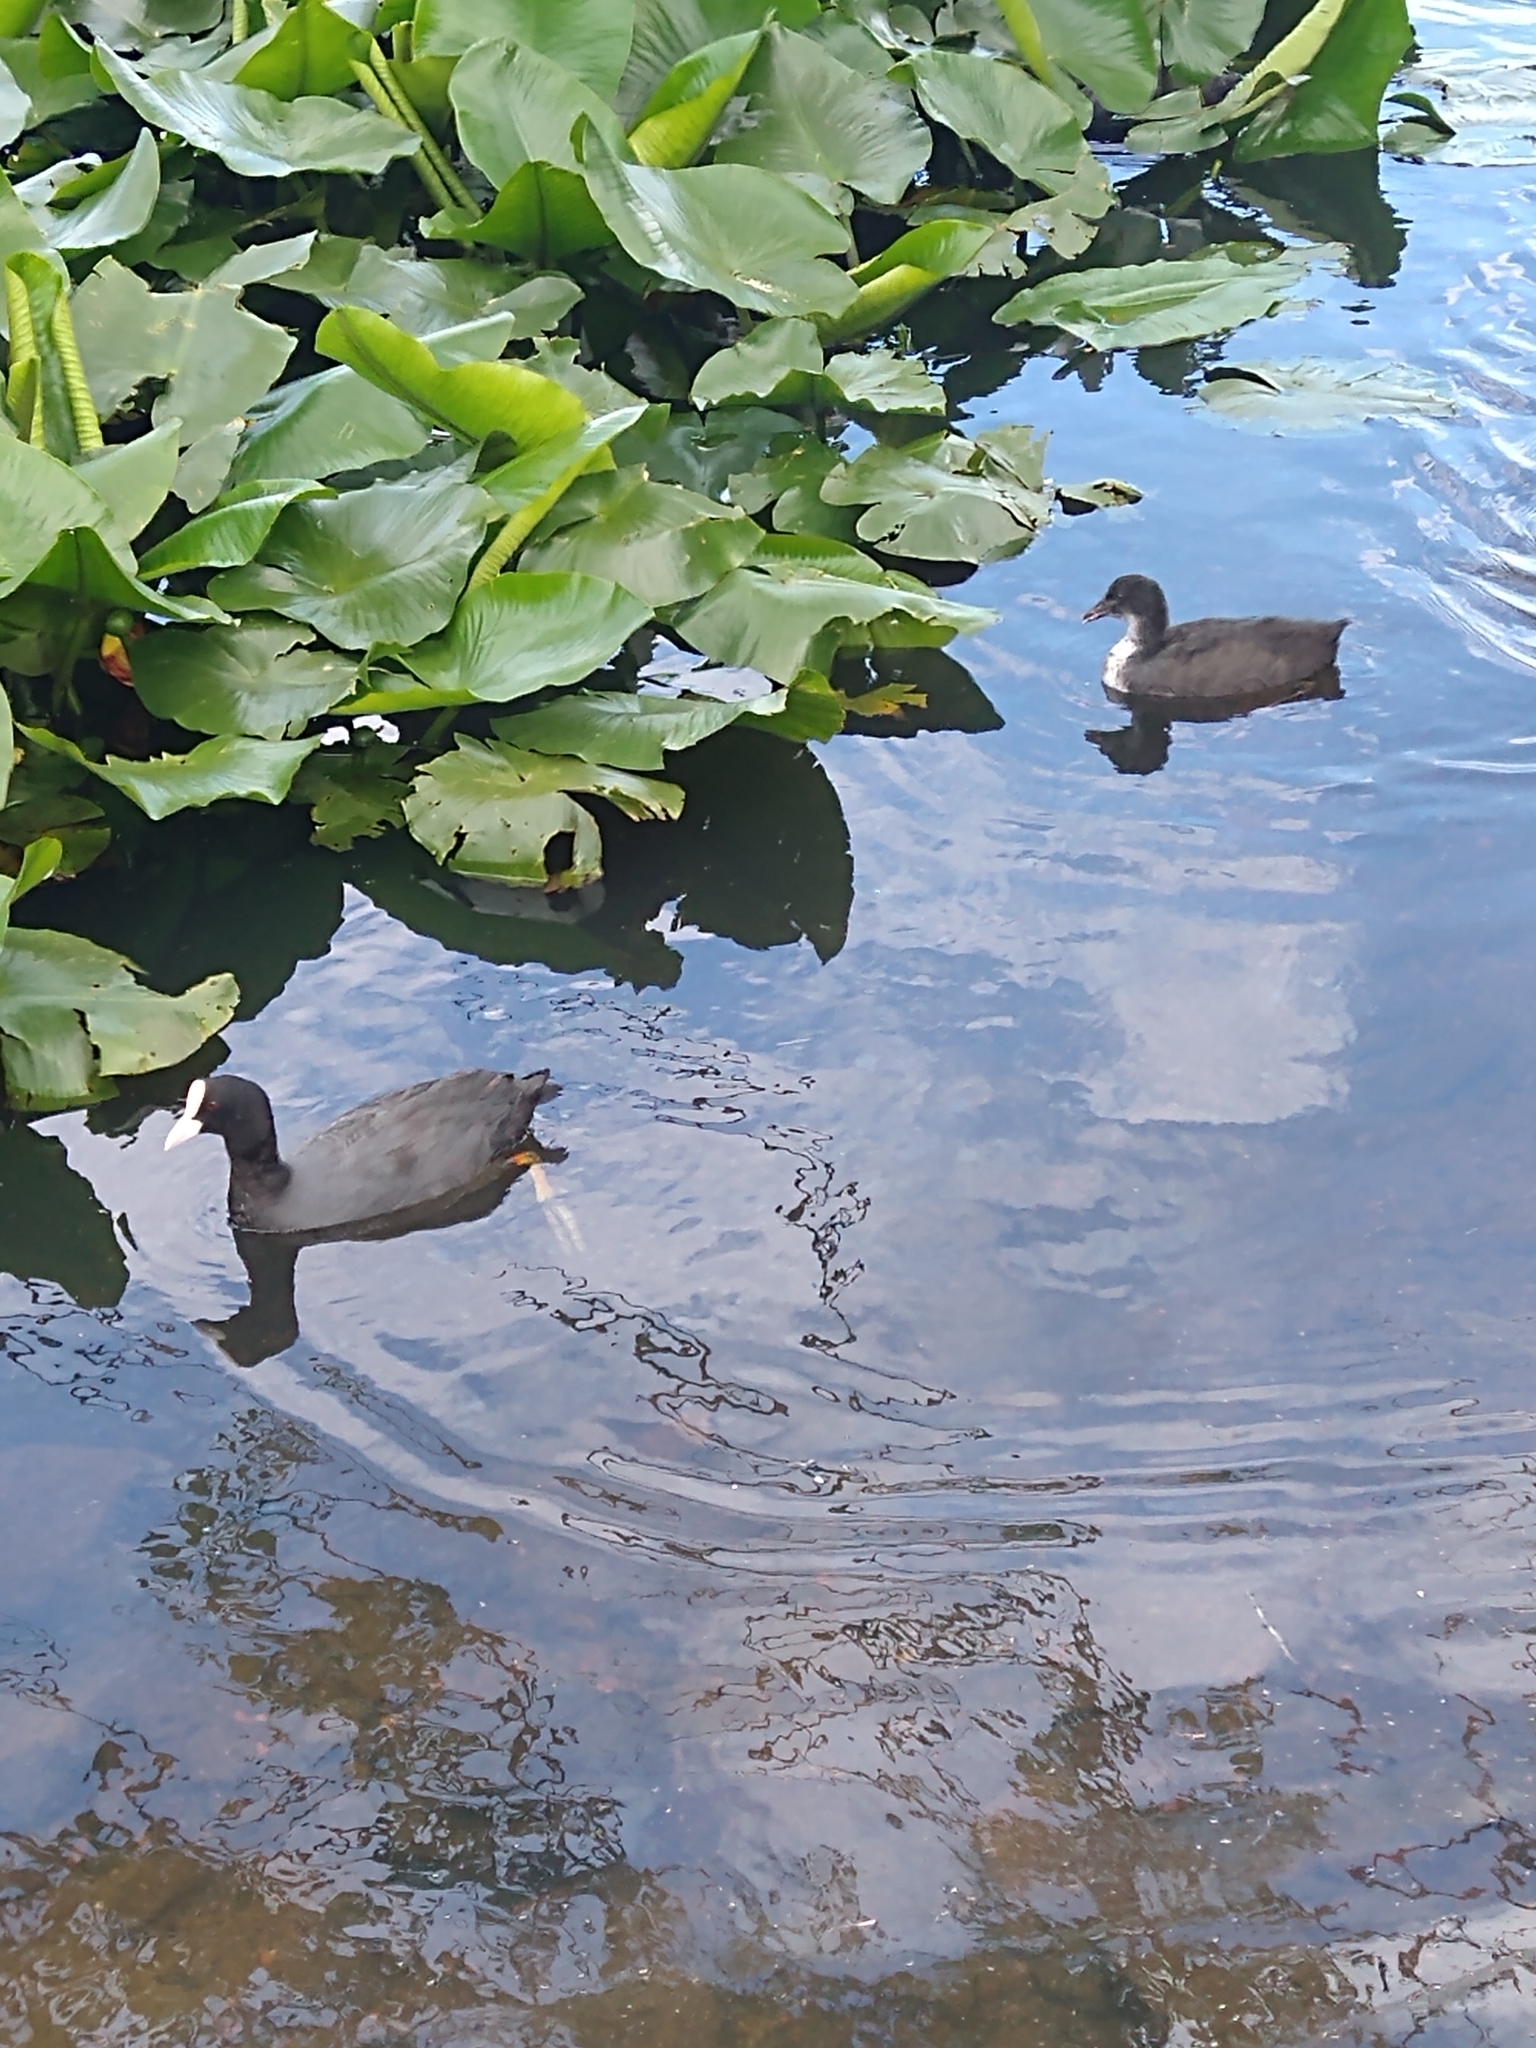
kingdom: Animalia
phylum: Chordata
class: Aves
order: Gruiformes
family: Rallidae
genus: Fulica
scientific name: Fulica atra
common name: Eurasian coot
